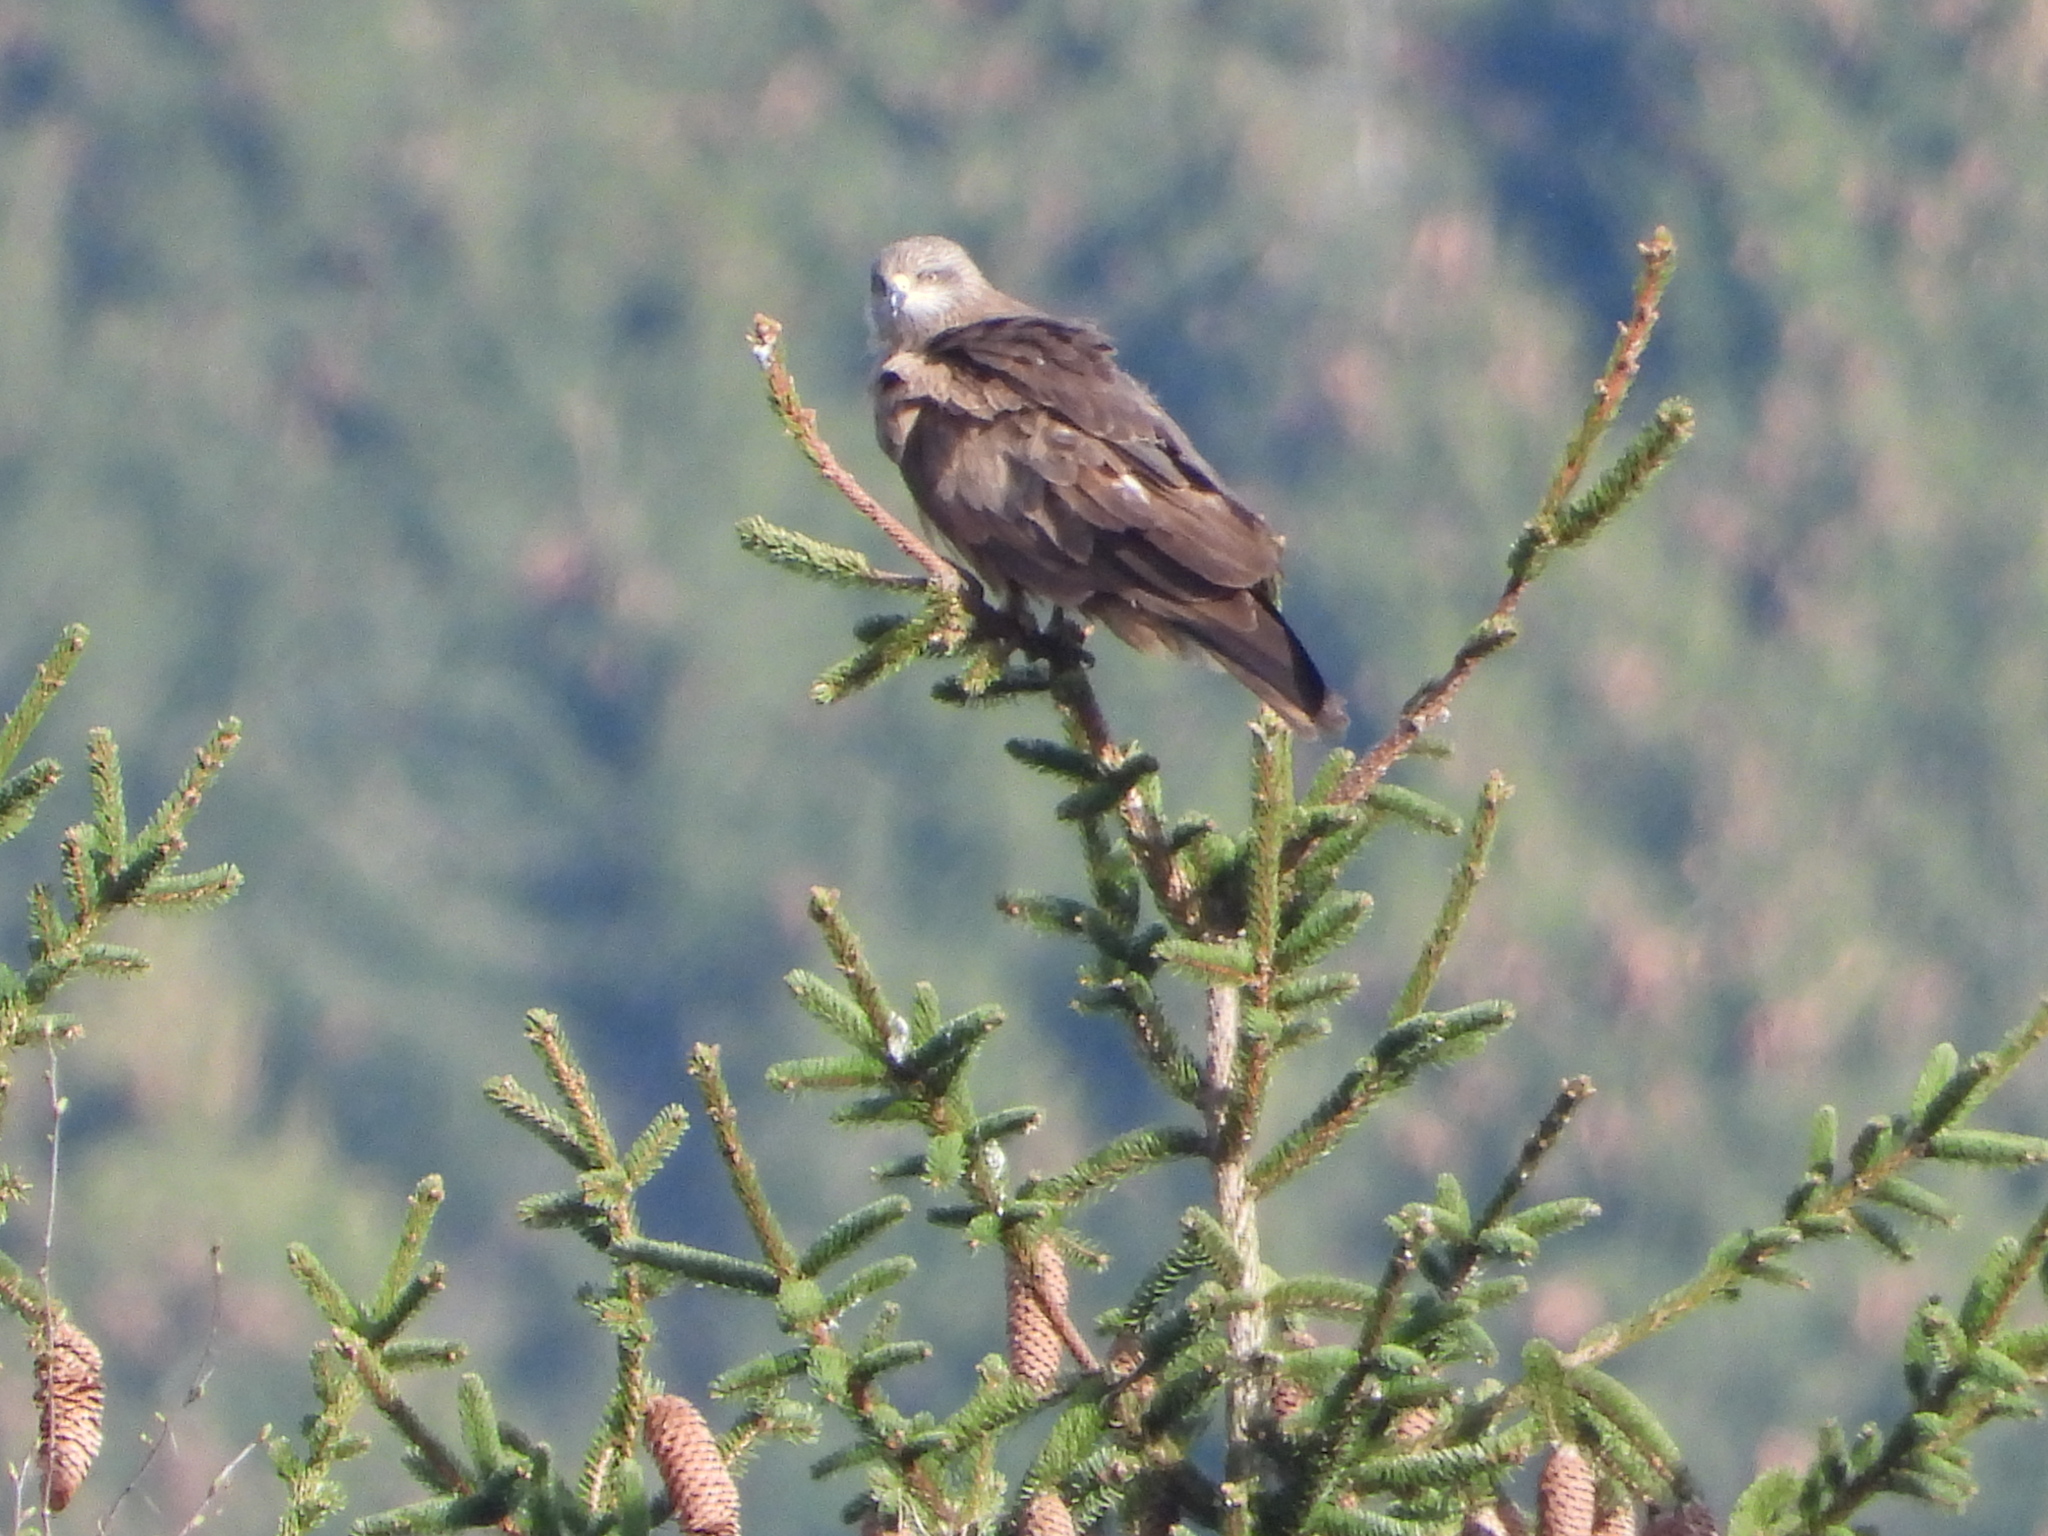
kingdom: Animalia
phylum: Chordata
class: Aves
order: Accipitriformes
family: Accipitridae
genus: Milvus
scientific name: Milvus migrans
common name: Black kite
